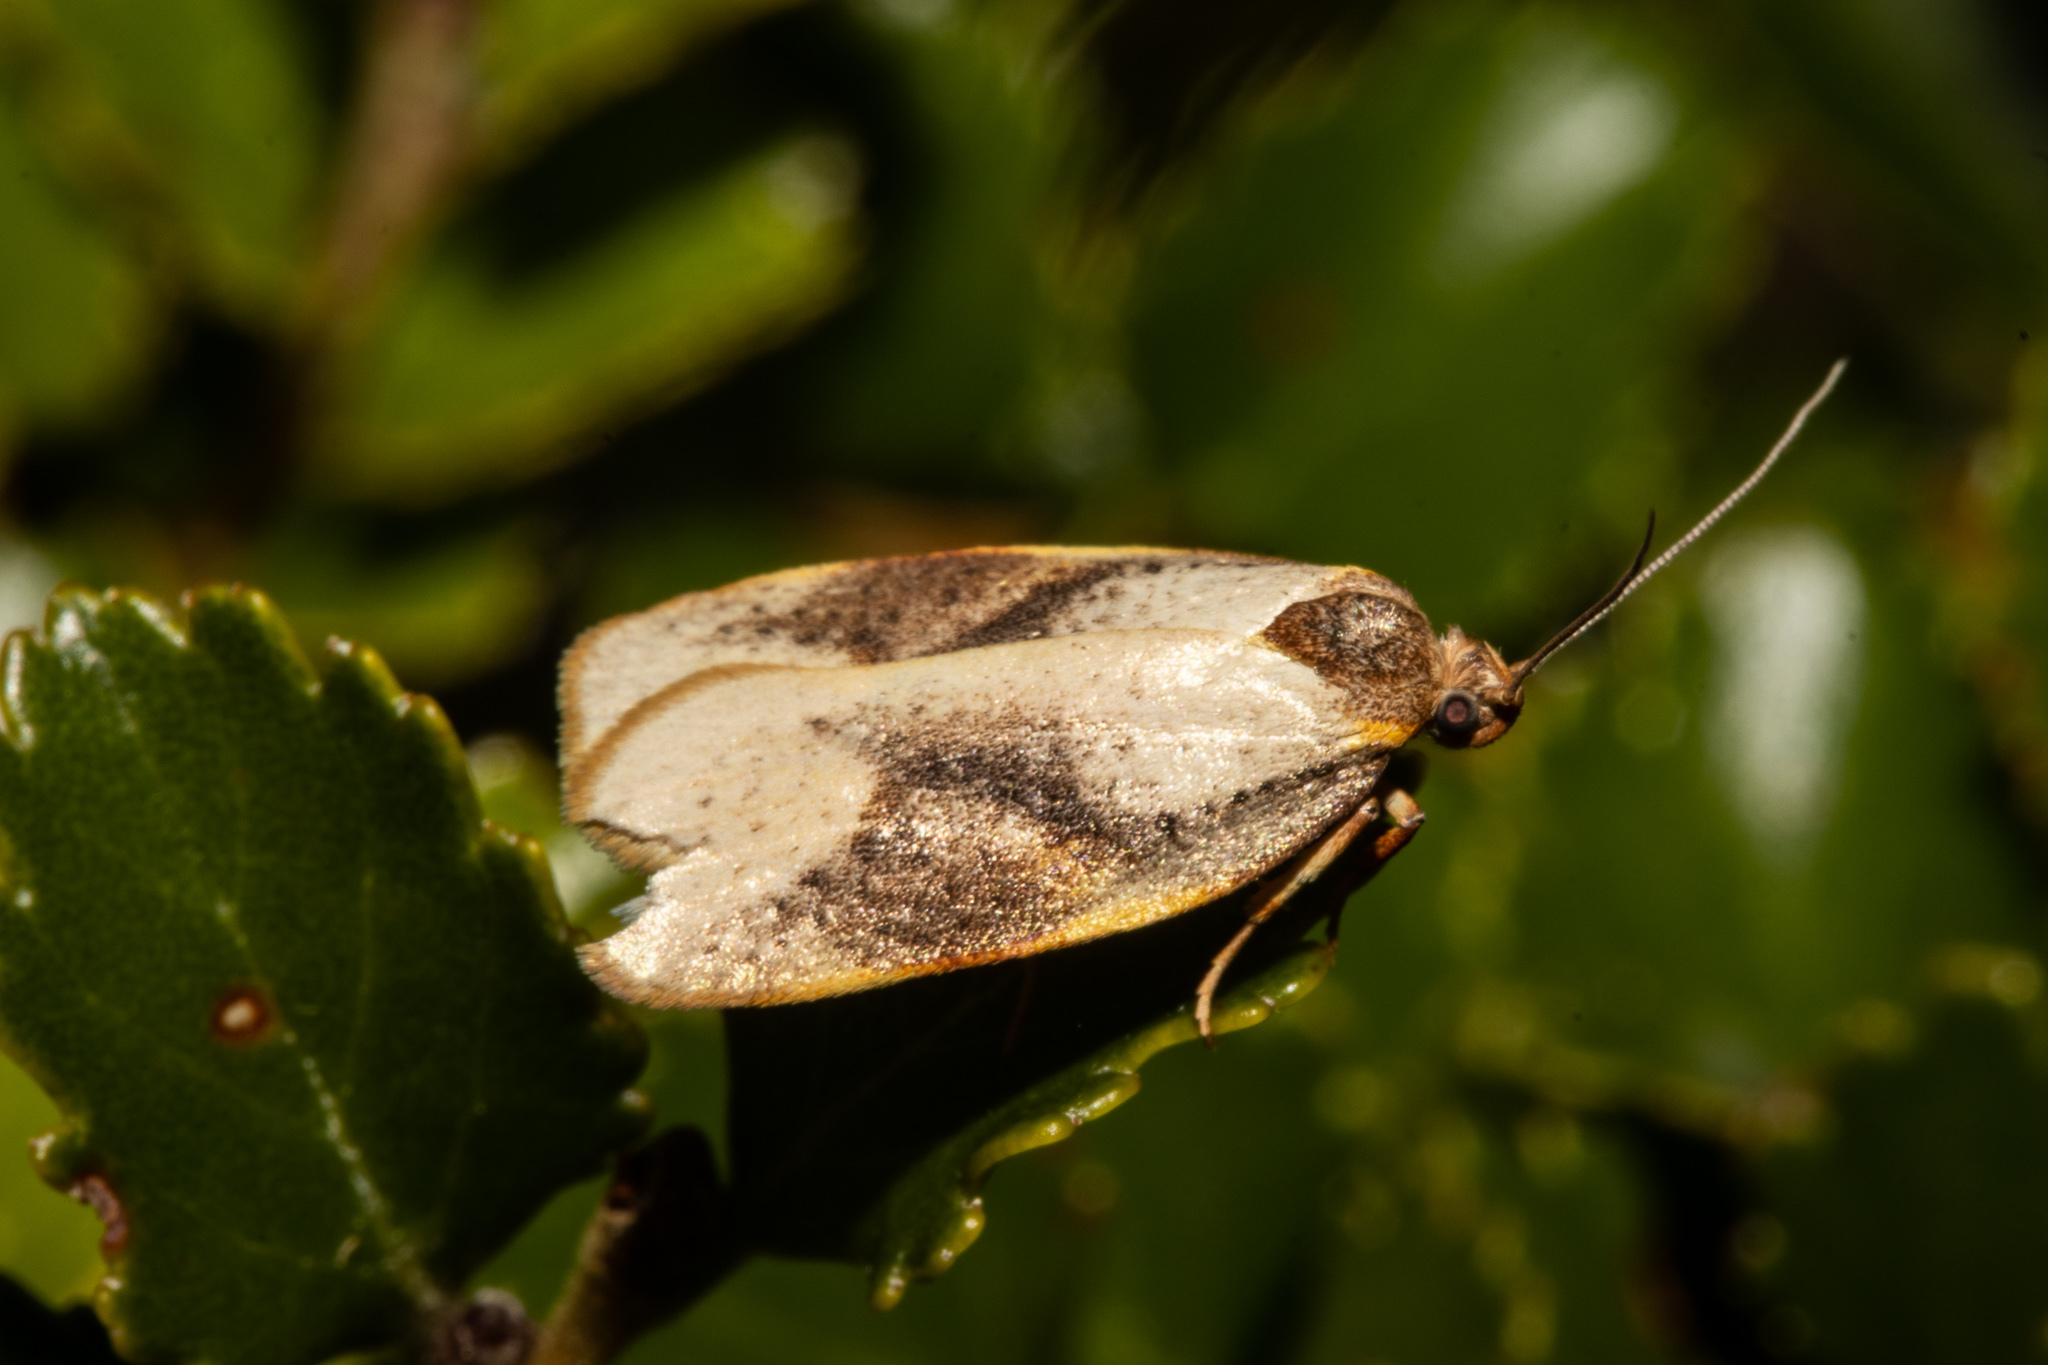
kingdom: Animalia
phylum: Arthropoda
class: Insecta
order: Lepidoptera
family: Oecophoridae
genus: Proteodes
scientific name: Proteodes carnifex
